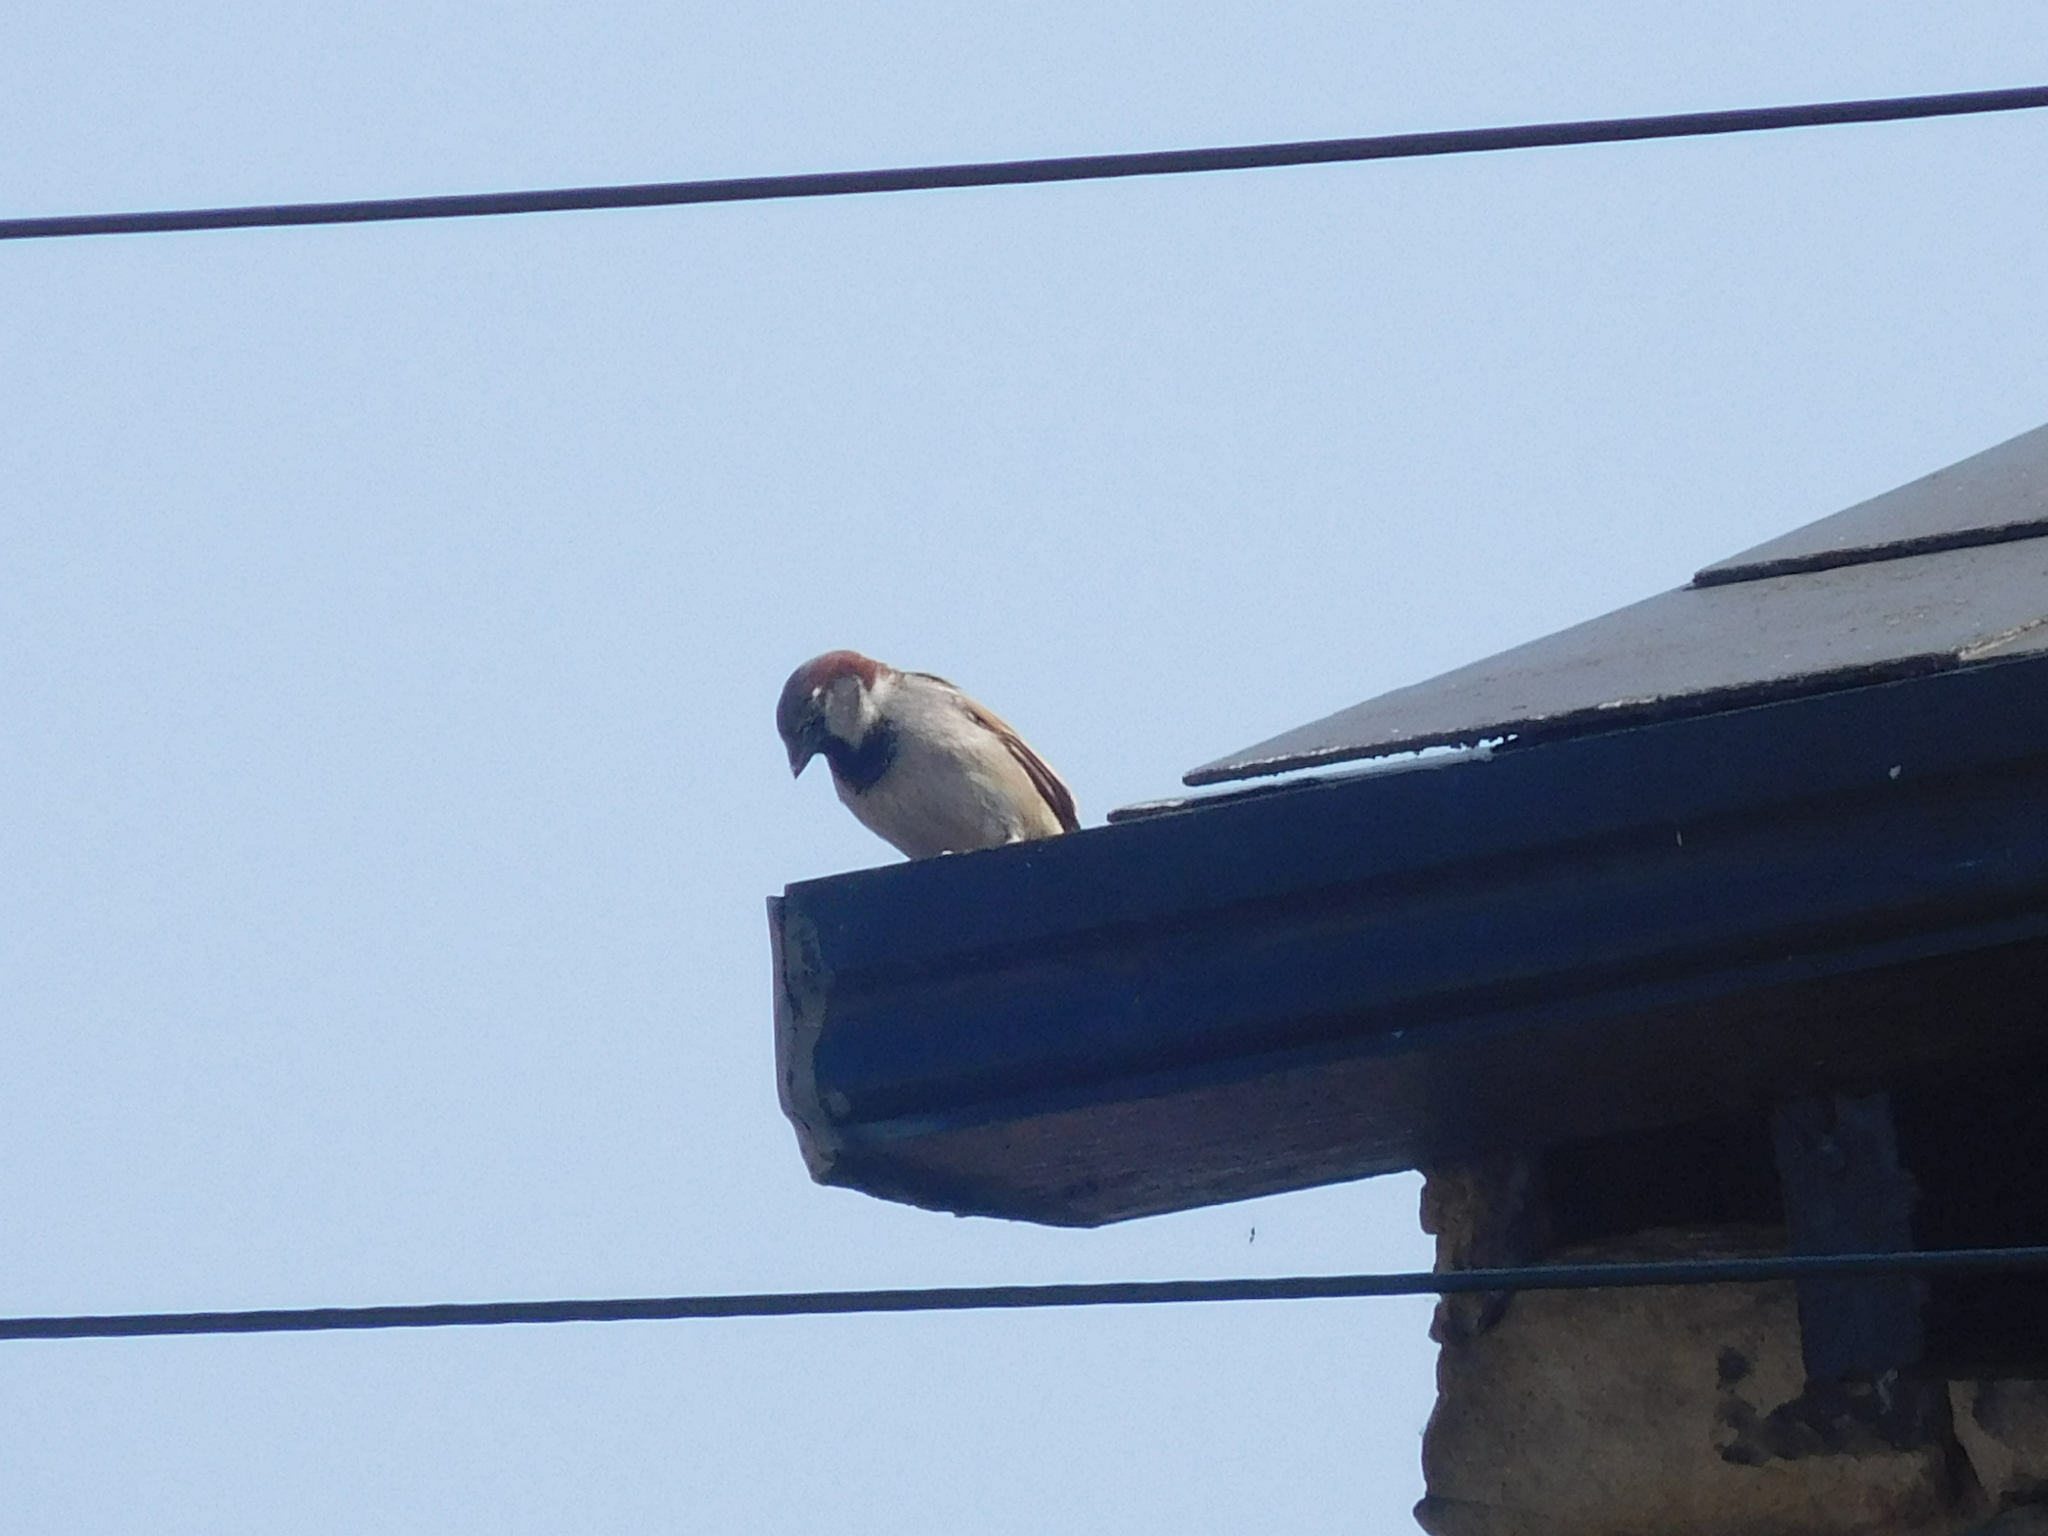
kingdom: Animalia
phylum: Chordata
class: Aves
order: Passeriformes
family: Passeridae
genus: Passer
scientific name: Passer domesticus
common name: House sparrow
